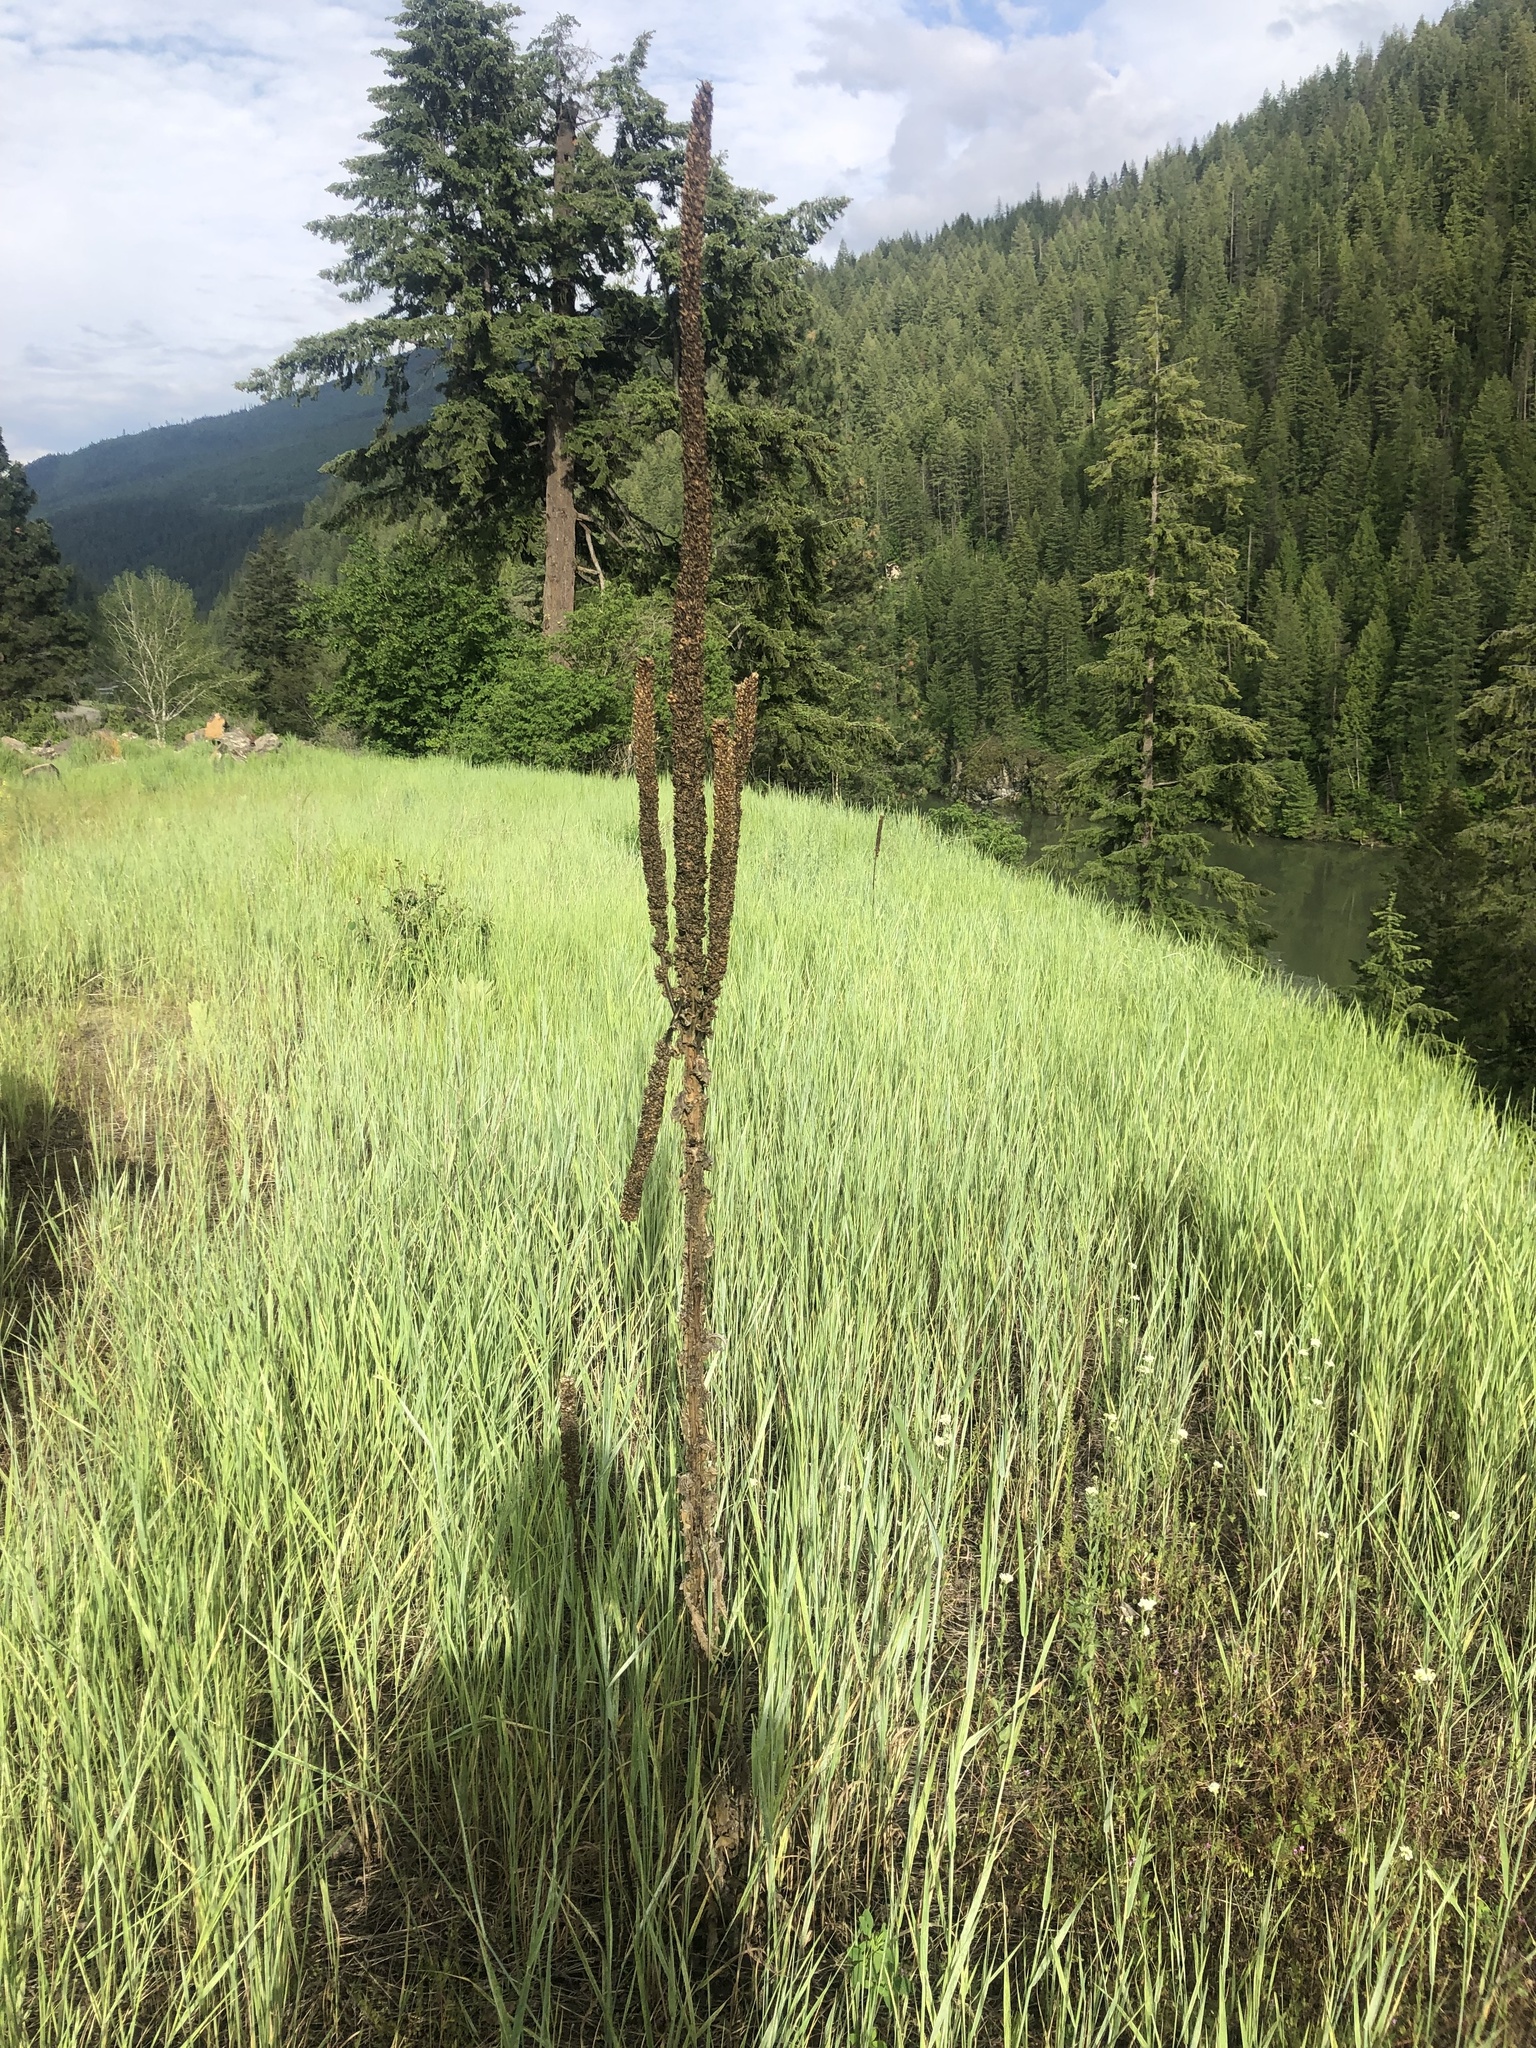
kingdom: Plantae
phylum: Tracheophyta
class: Magnoliopsida
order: Lamiales
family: Scrophulariaceae
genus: Verbascum
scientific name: Verbascum thapsus
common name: Common mullein
